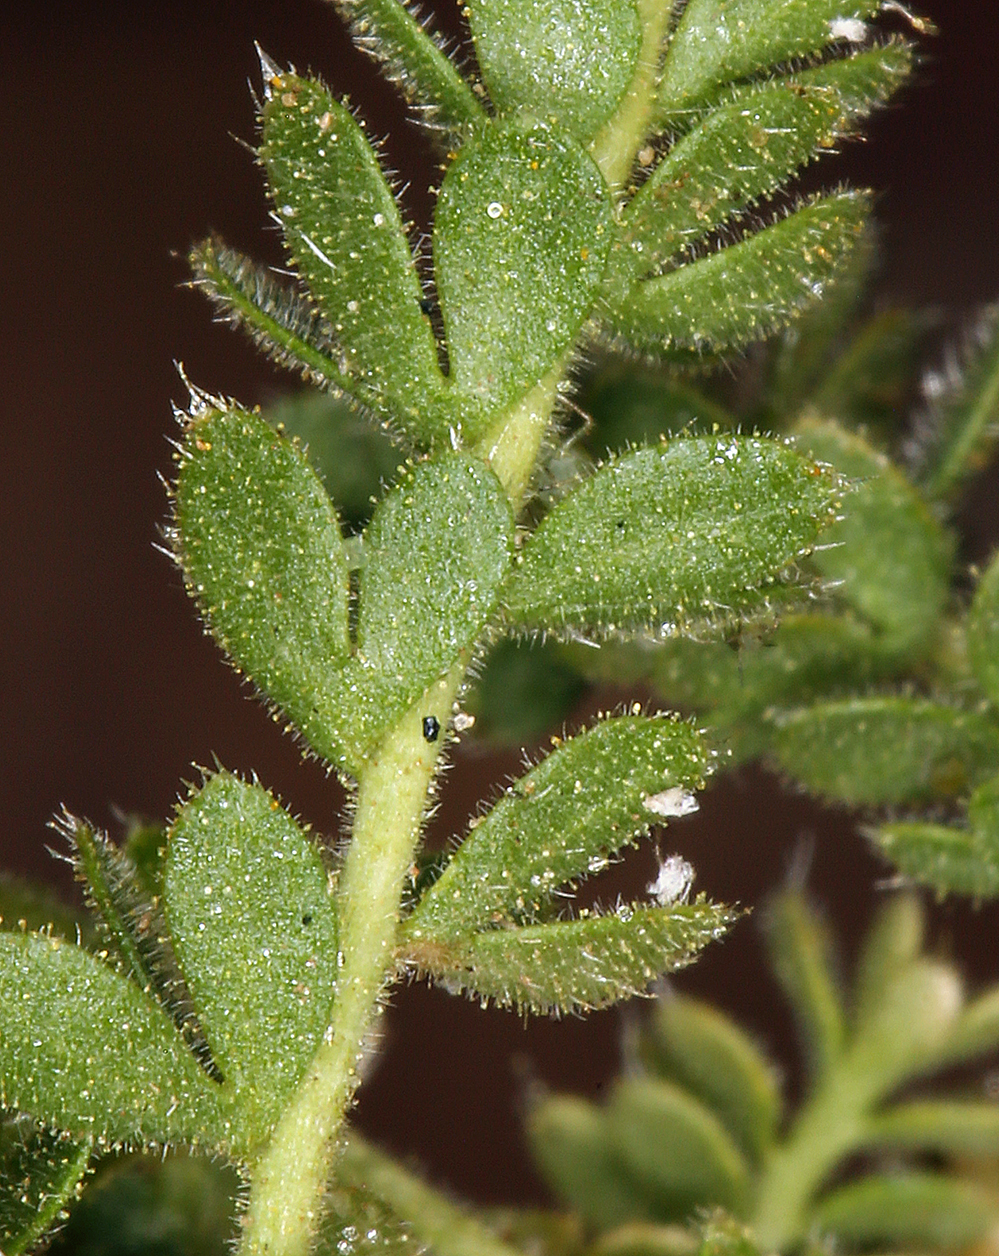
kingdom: Plantae
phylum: Tracheophyta
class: Magnoliopsida
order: Rosales
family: Rosaceae
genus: Potentilla
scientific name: Potentilla shockleyi
